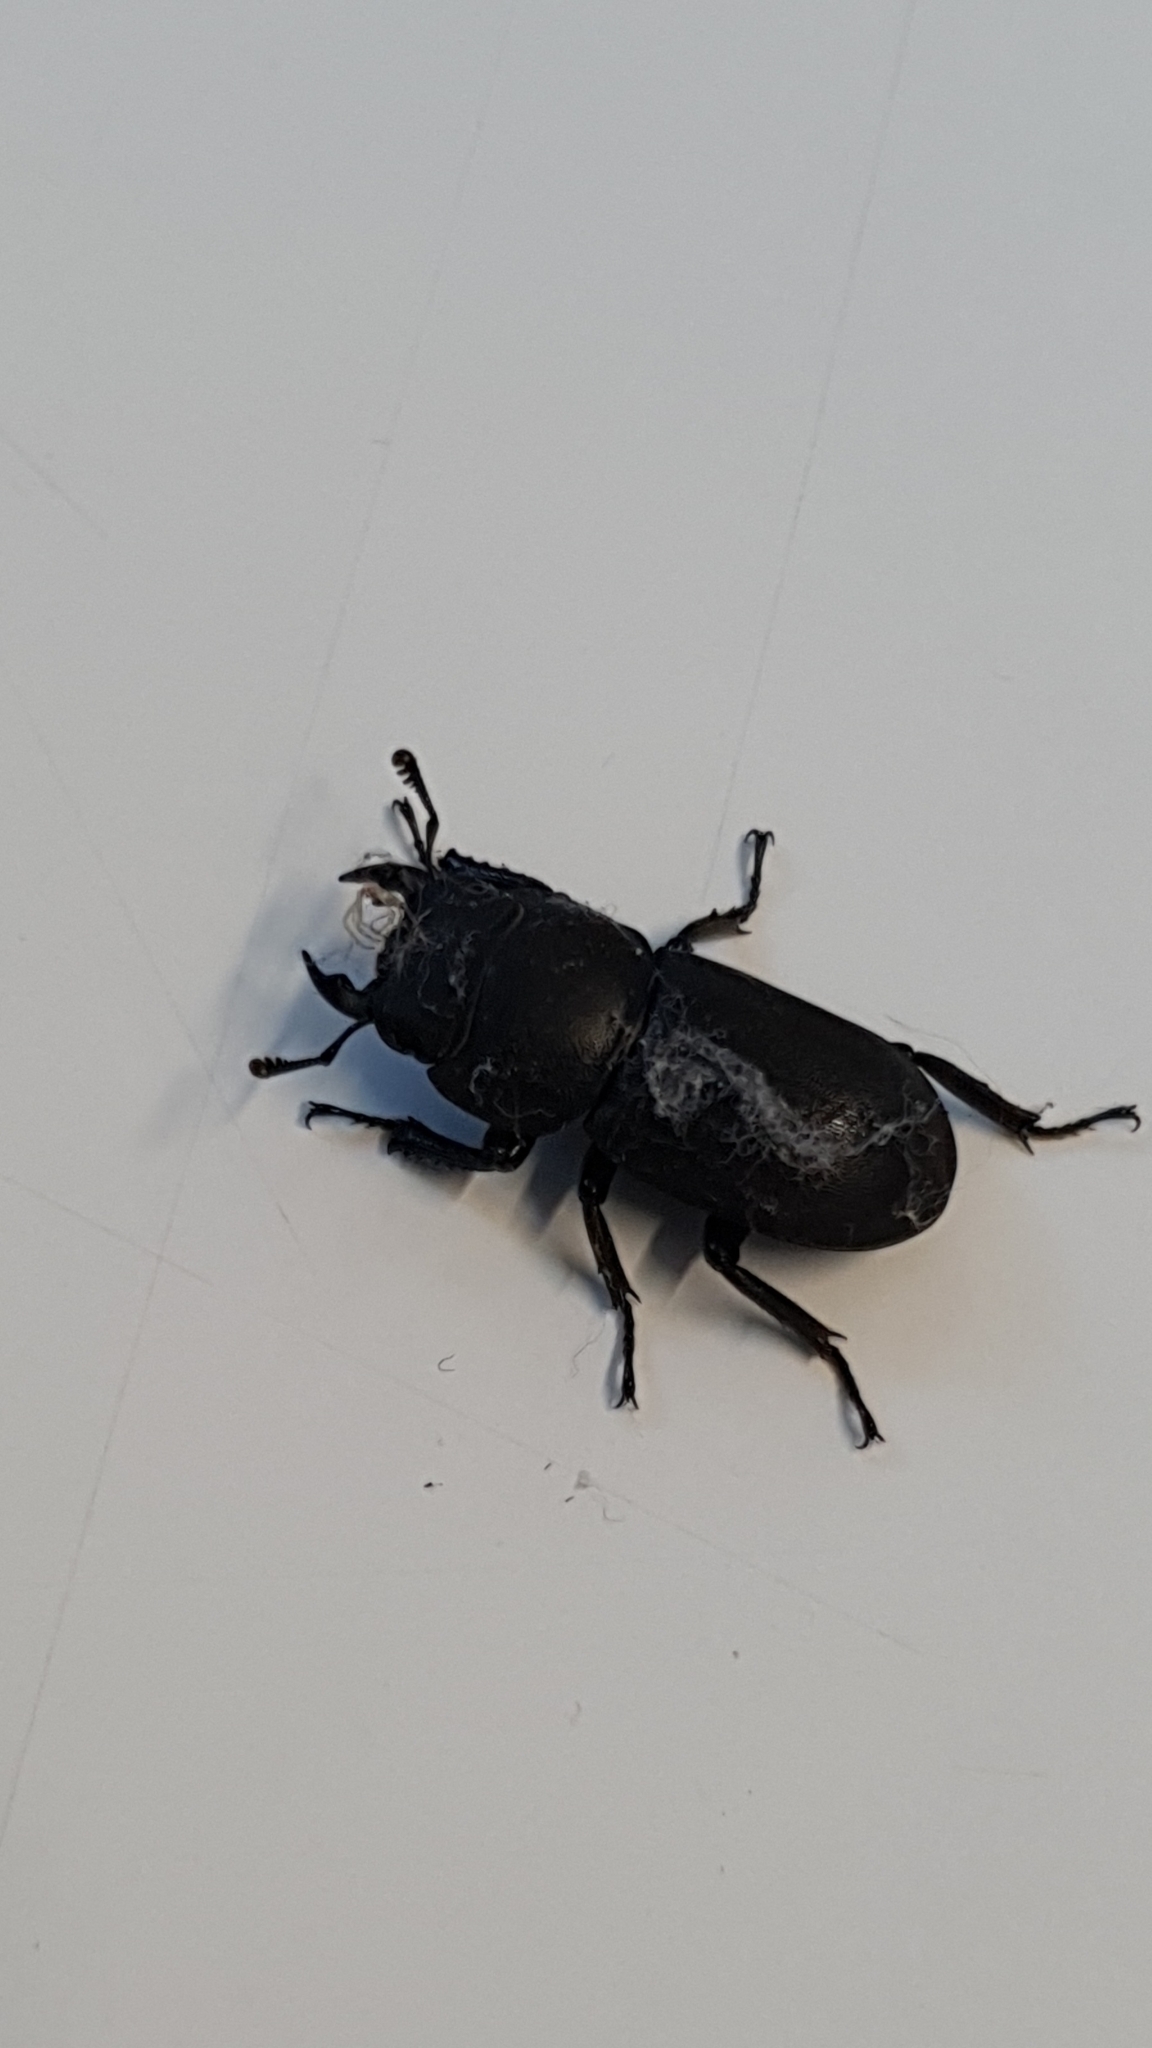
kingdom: Animalia
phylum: Arthropoda
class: Insecta
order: Coleoptera
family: Lucanidae
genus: Dorcus
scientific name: Dorcus parallelipipedus
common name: Lesser stag beetle
